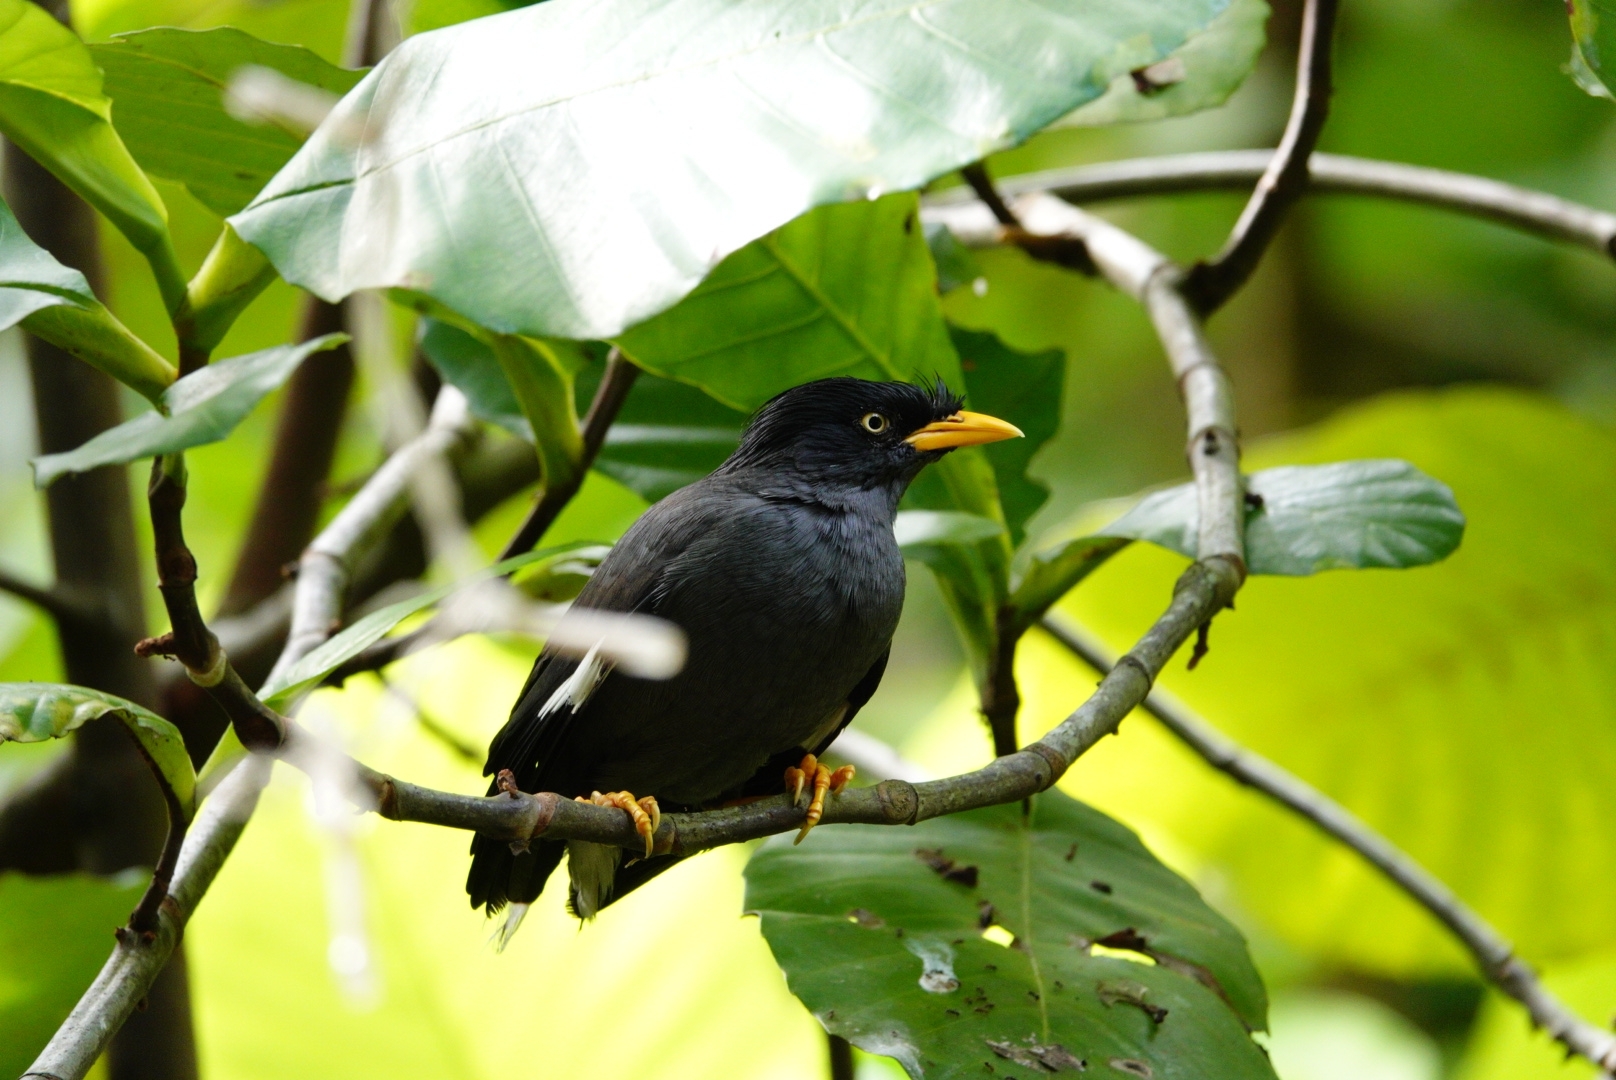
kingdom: Animalia
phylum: Chordata
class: Aves
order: Passeriformes
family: Sturnidae
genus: Acridotheres
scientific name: Acridotheres javanicus
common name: Javan myna
